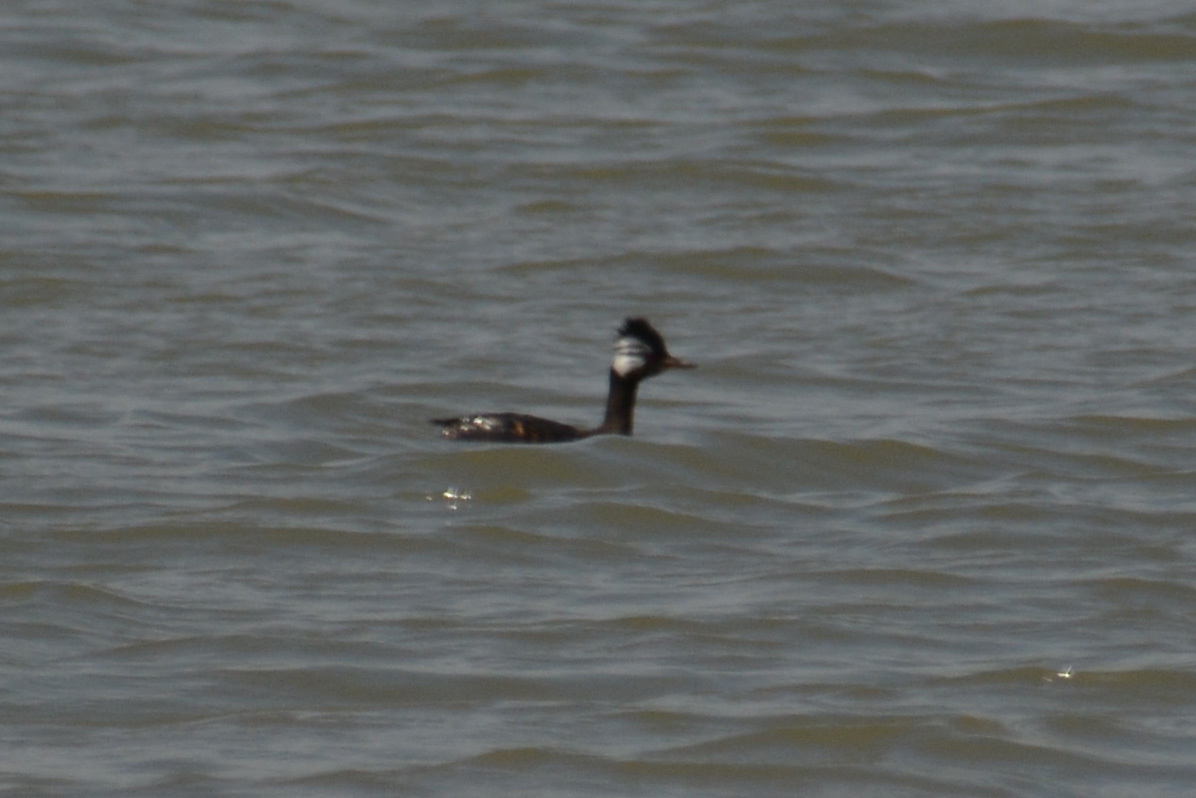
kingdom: Animalia
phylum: Chordata
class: Aves
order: Podicipediformes
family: Podicipedidae
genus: Rollandia
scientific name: Rollandia rolland
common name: White-tufted grebe
